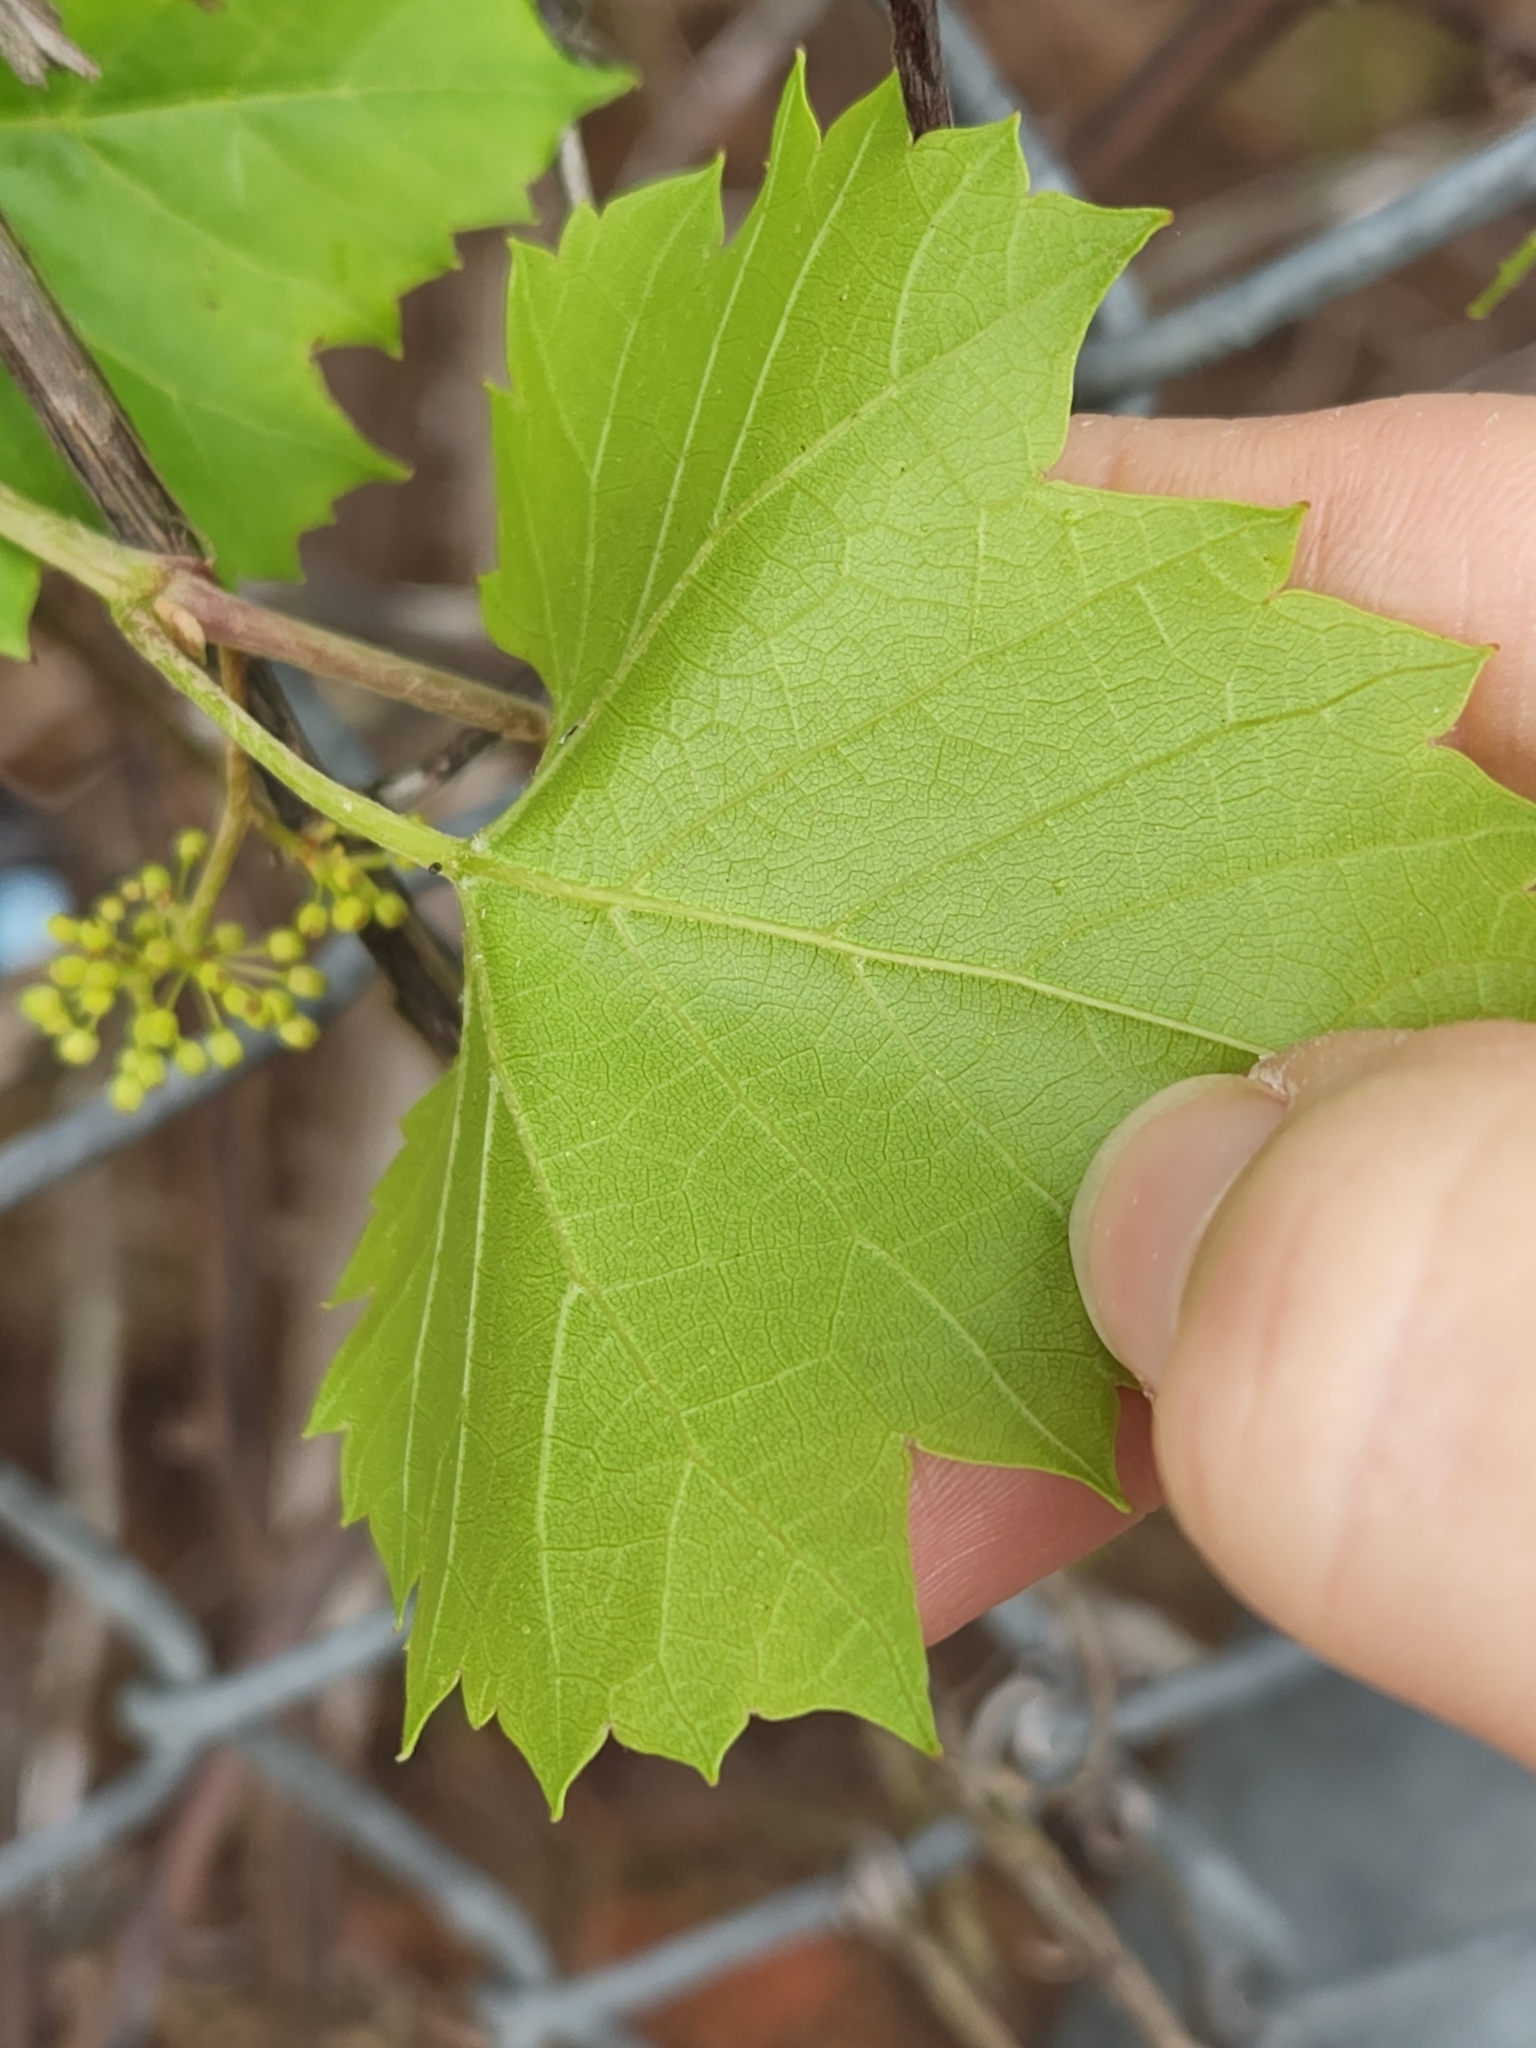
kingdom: Plantae
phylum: Tracheophyta
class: Magnoliopsida
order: Vitales
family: Vitaceae
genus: Vitis
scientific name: Vitis monticola
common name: Mountain grape
